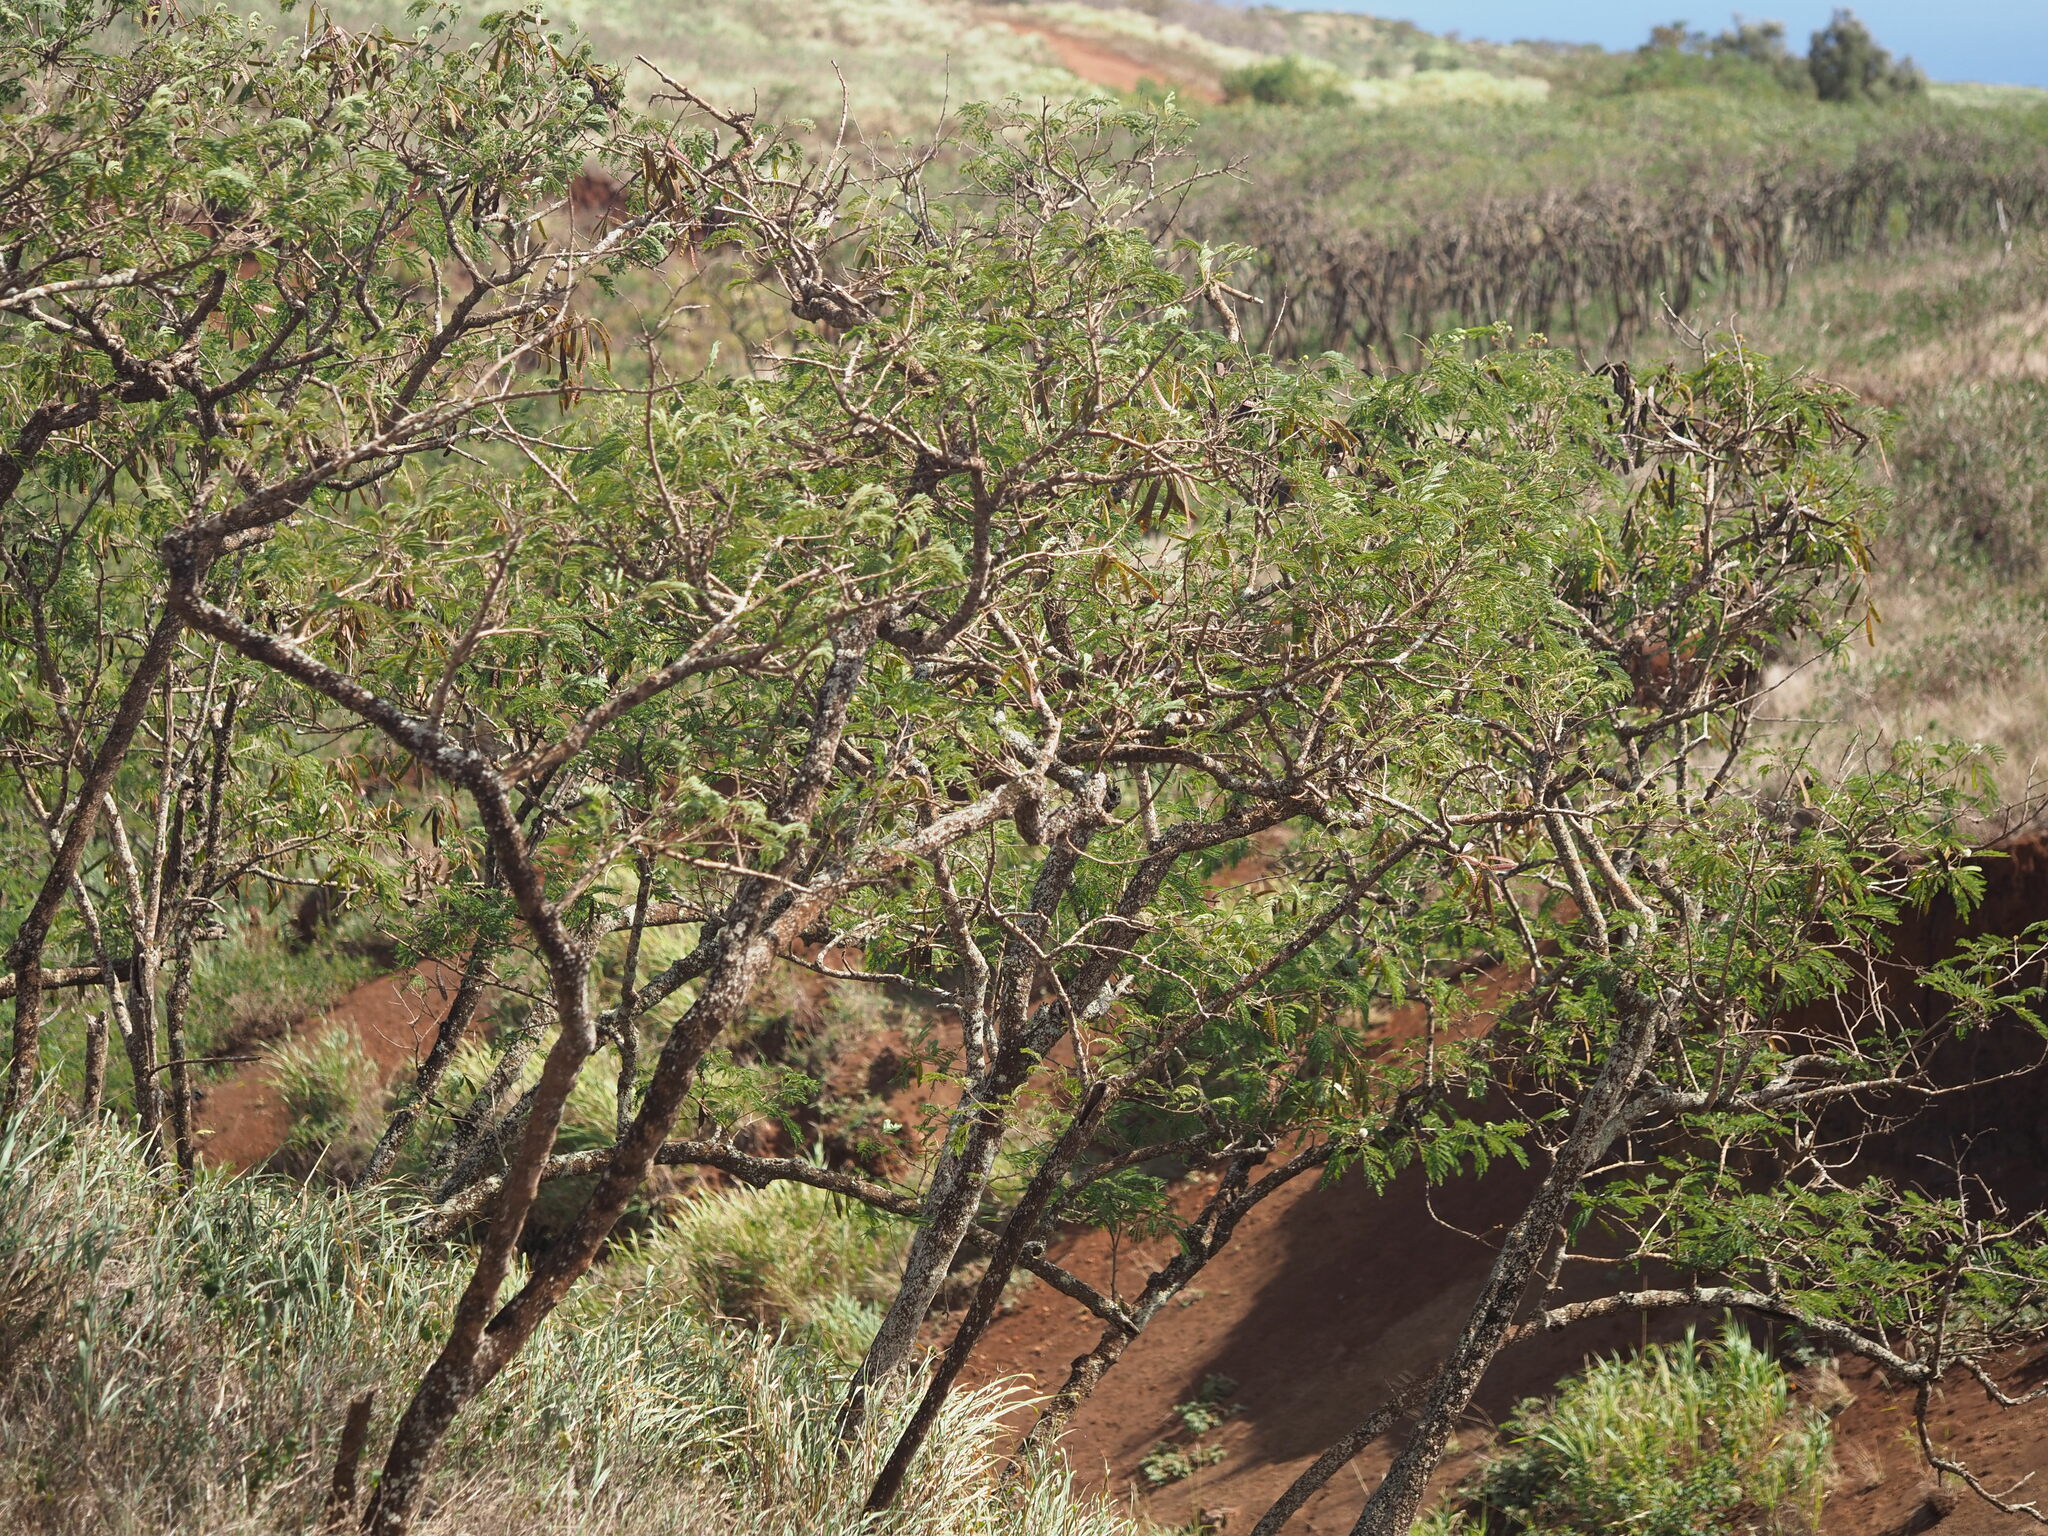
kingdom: Plantae
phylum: Tracheophyta
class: Magnoliopsida
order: Fabales
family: Fabaceae
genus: Leucaena
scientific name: Leucaena leucocephala
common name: White leadtree
